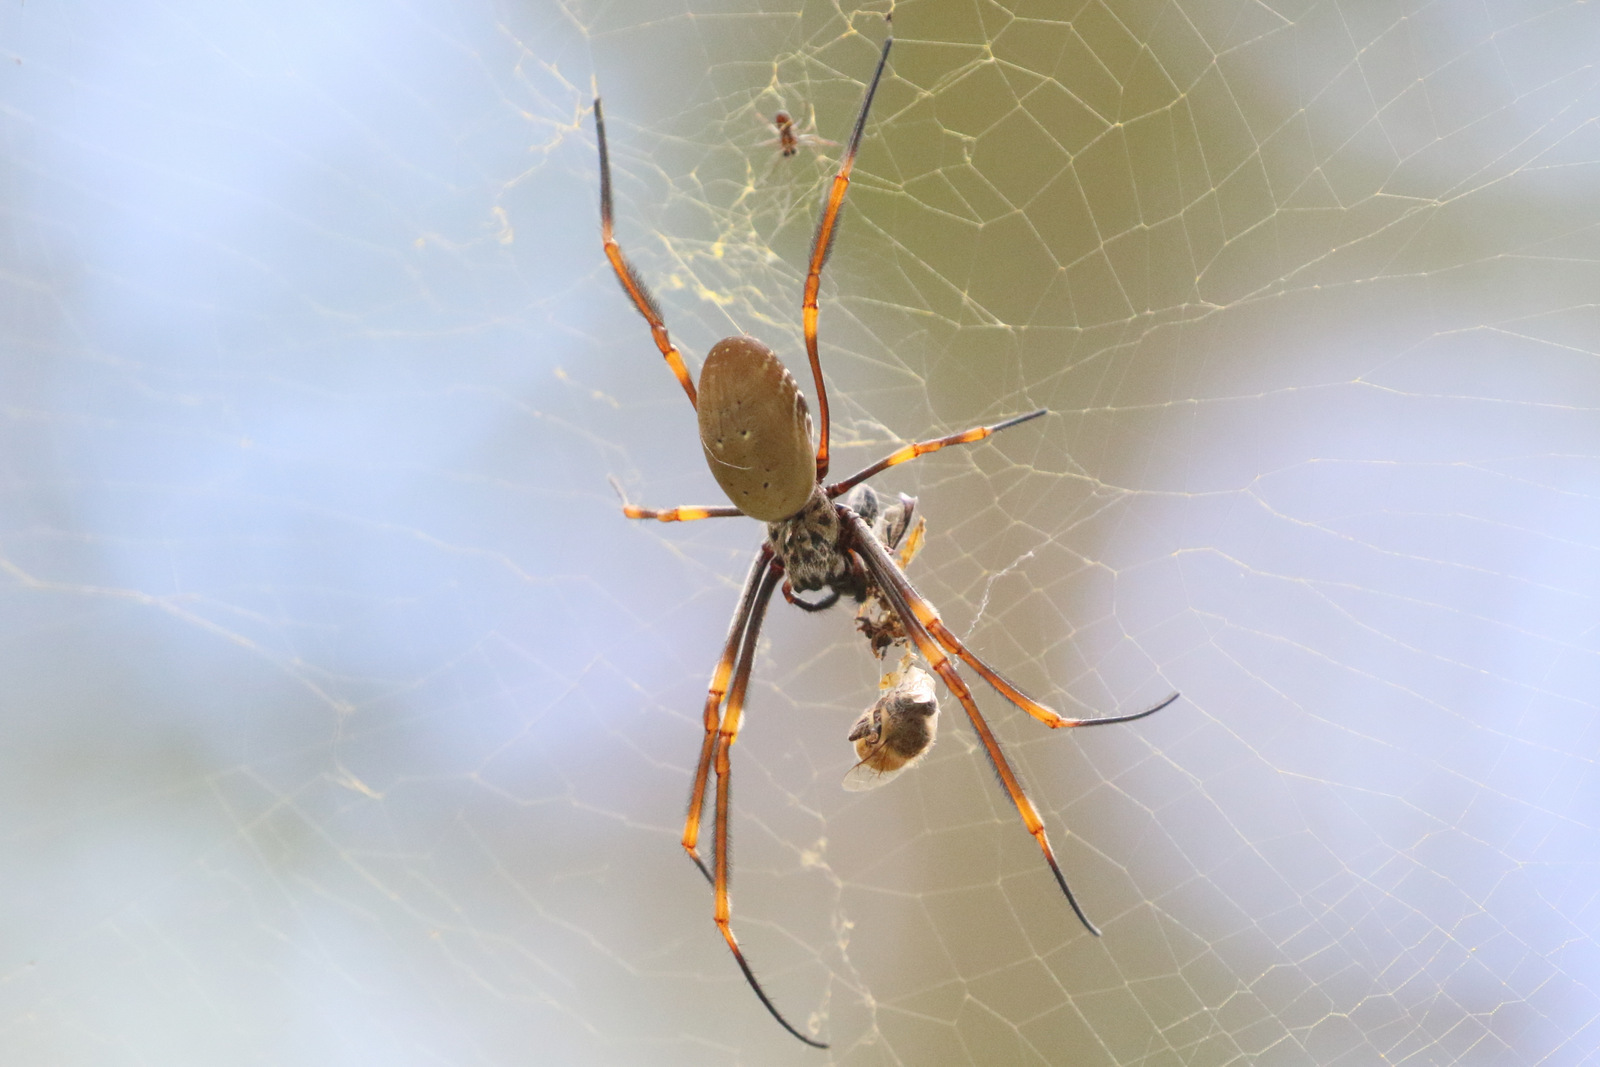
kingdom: Animalia
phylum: Arthropoda
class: Arachnida
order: Araneae
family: Araneidae
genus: Trichonephila
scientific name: Trichonephila plumipes
